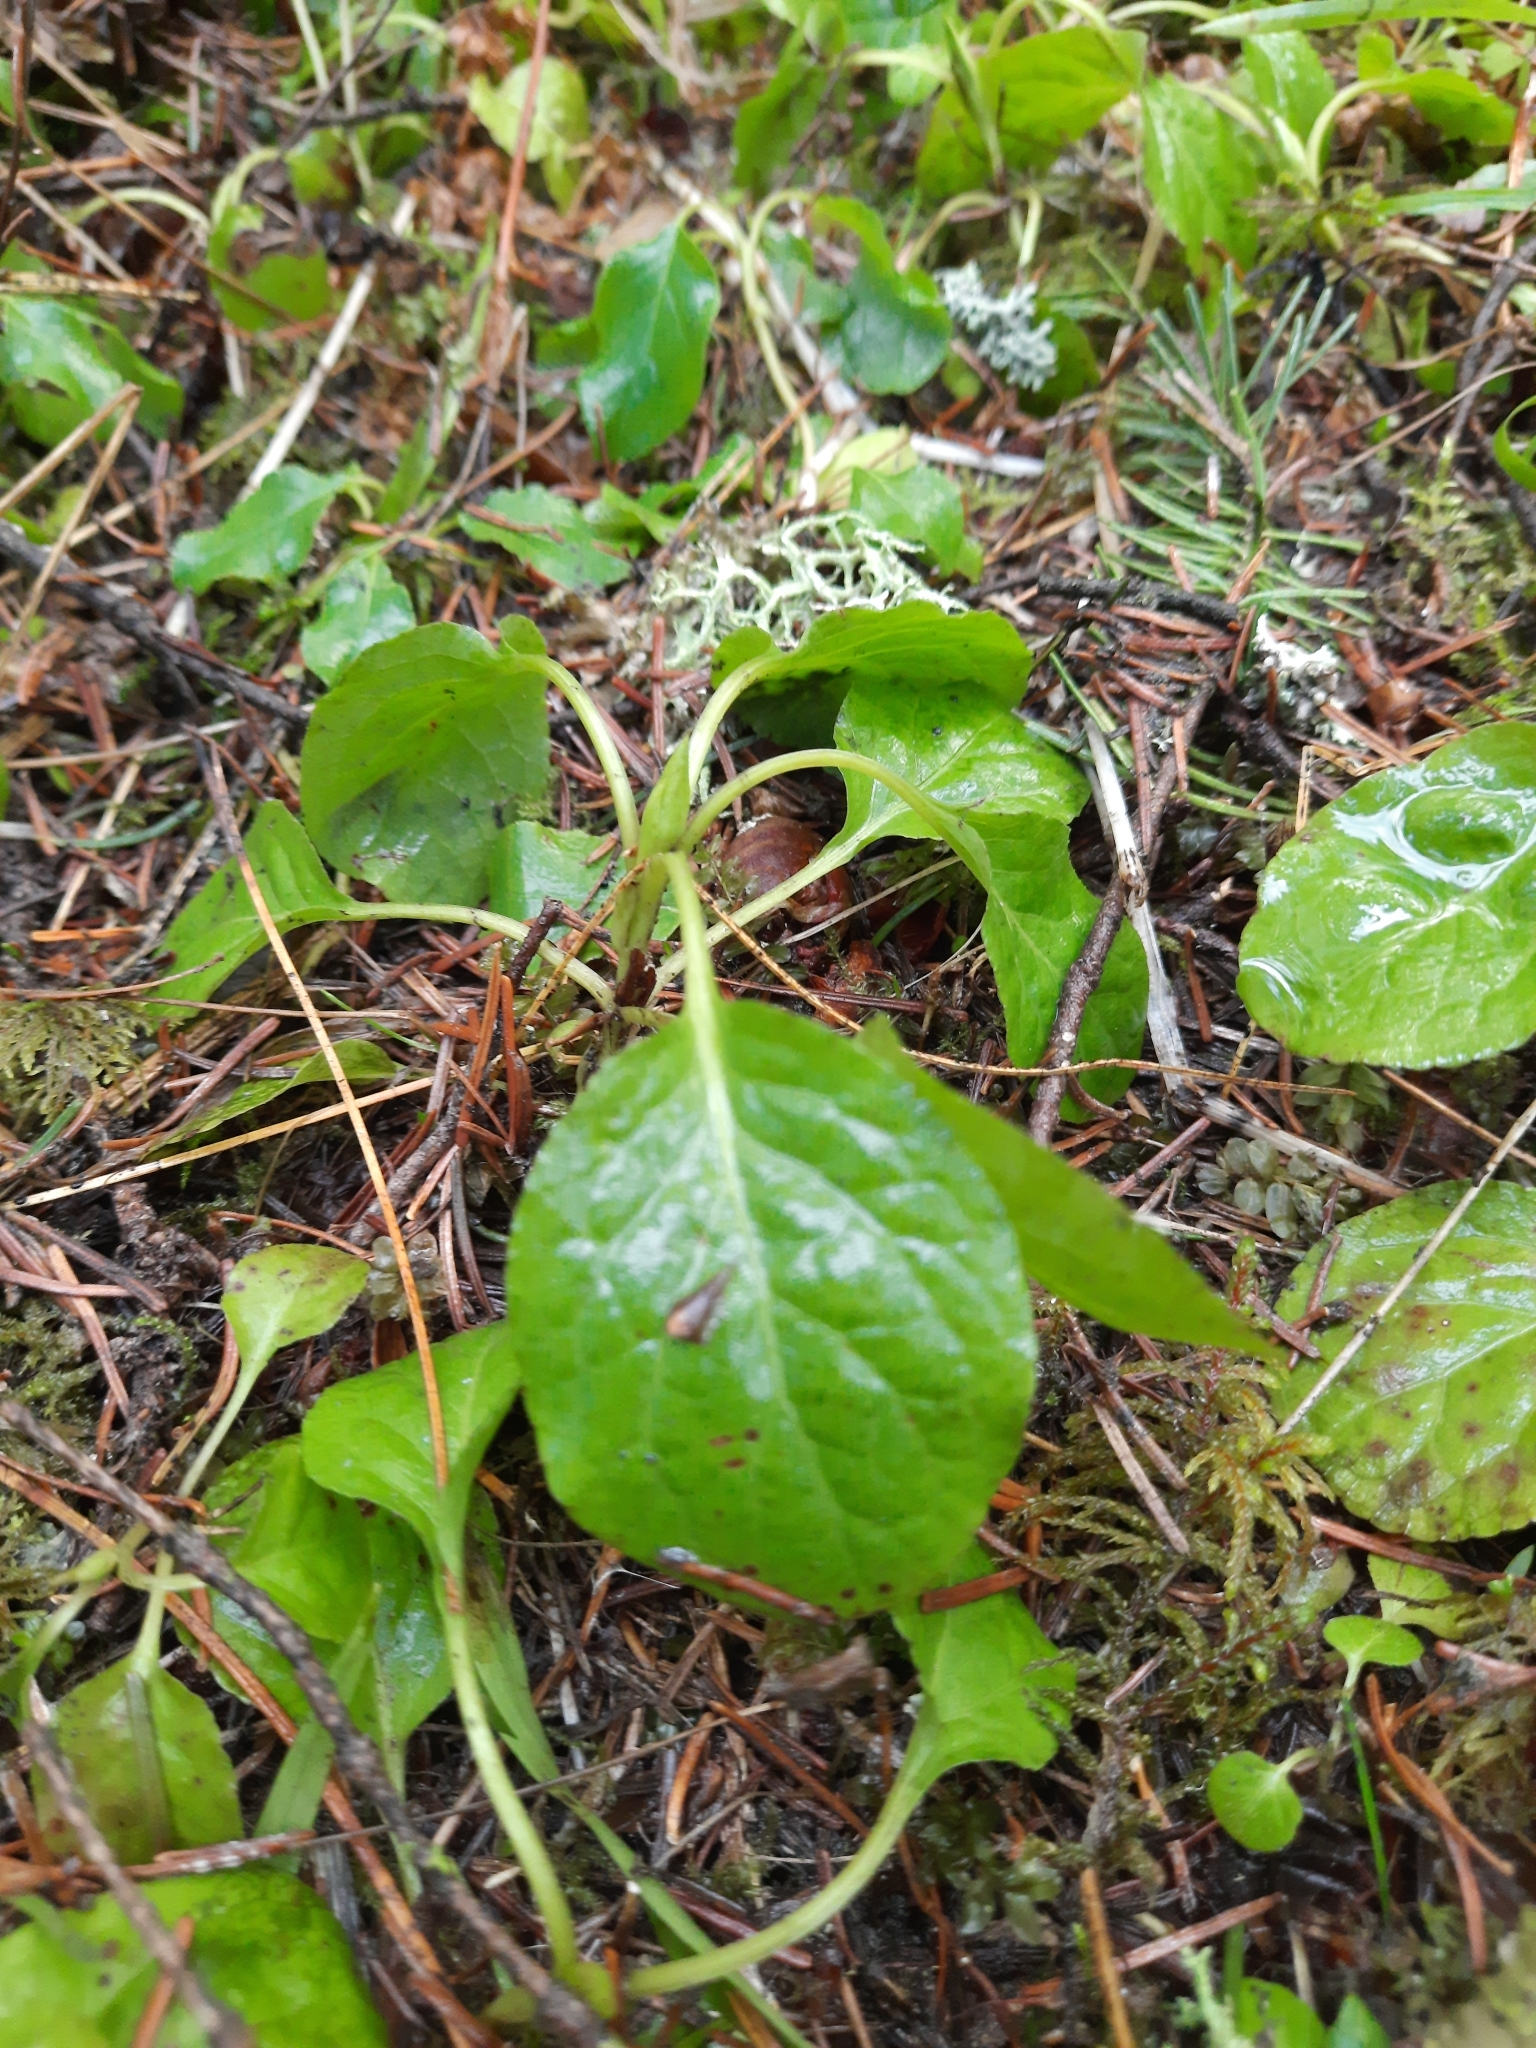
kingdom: Plantae
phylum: Tracheophyta
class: Magnoliopsida
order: Ericales
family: Ericaceae
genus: Orthilia
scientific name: Orthilia secunda
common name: One-sided orthilia
